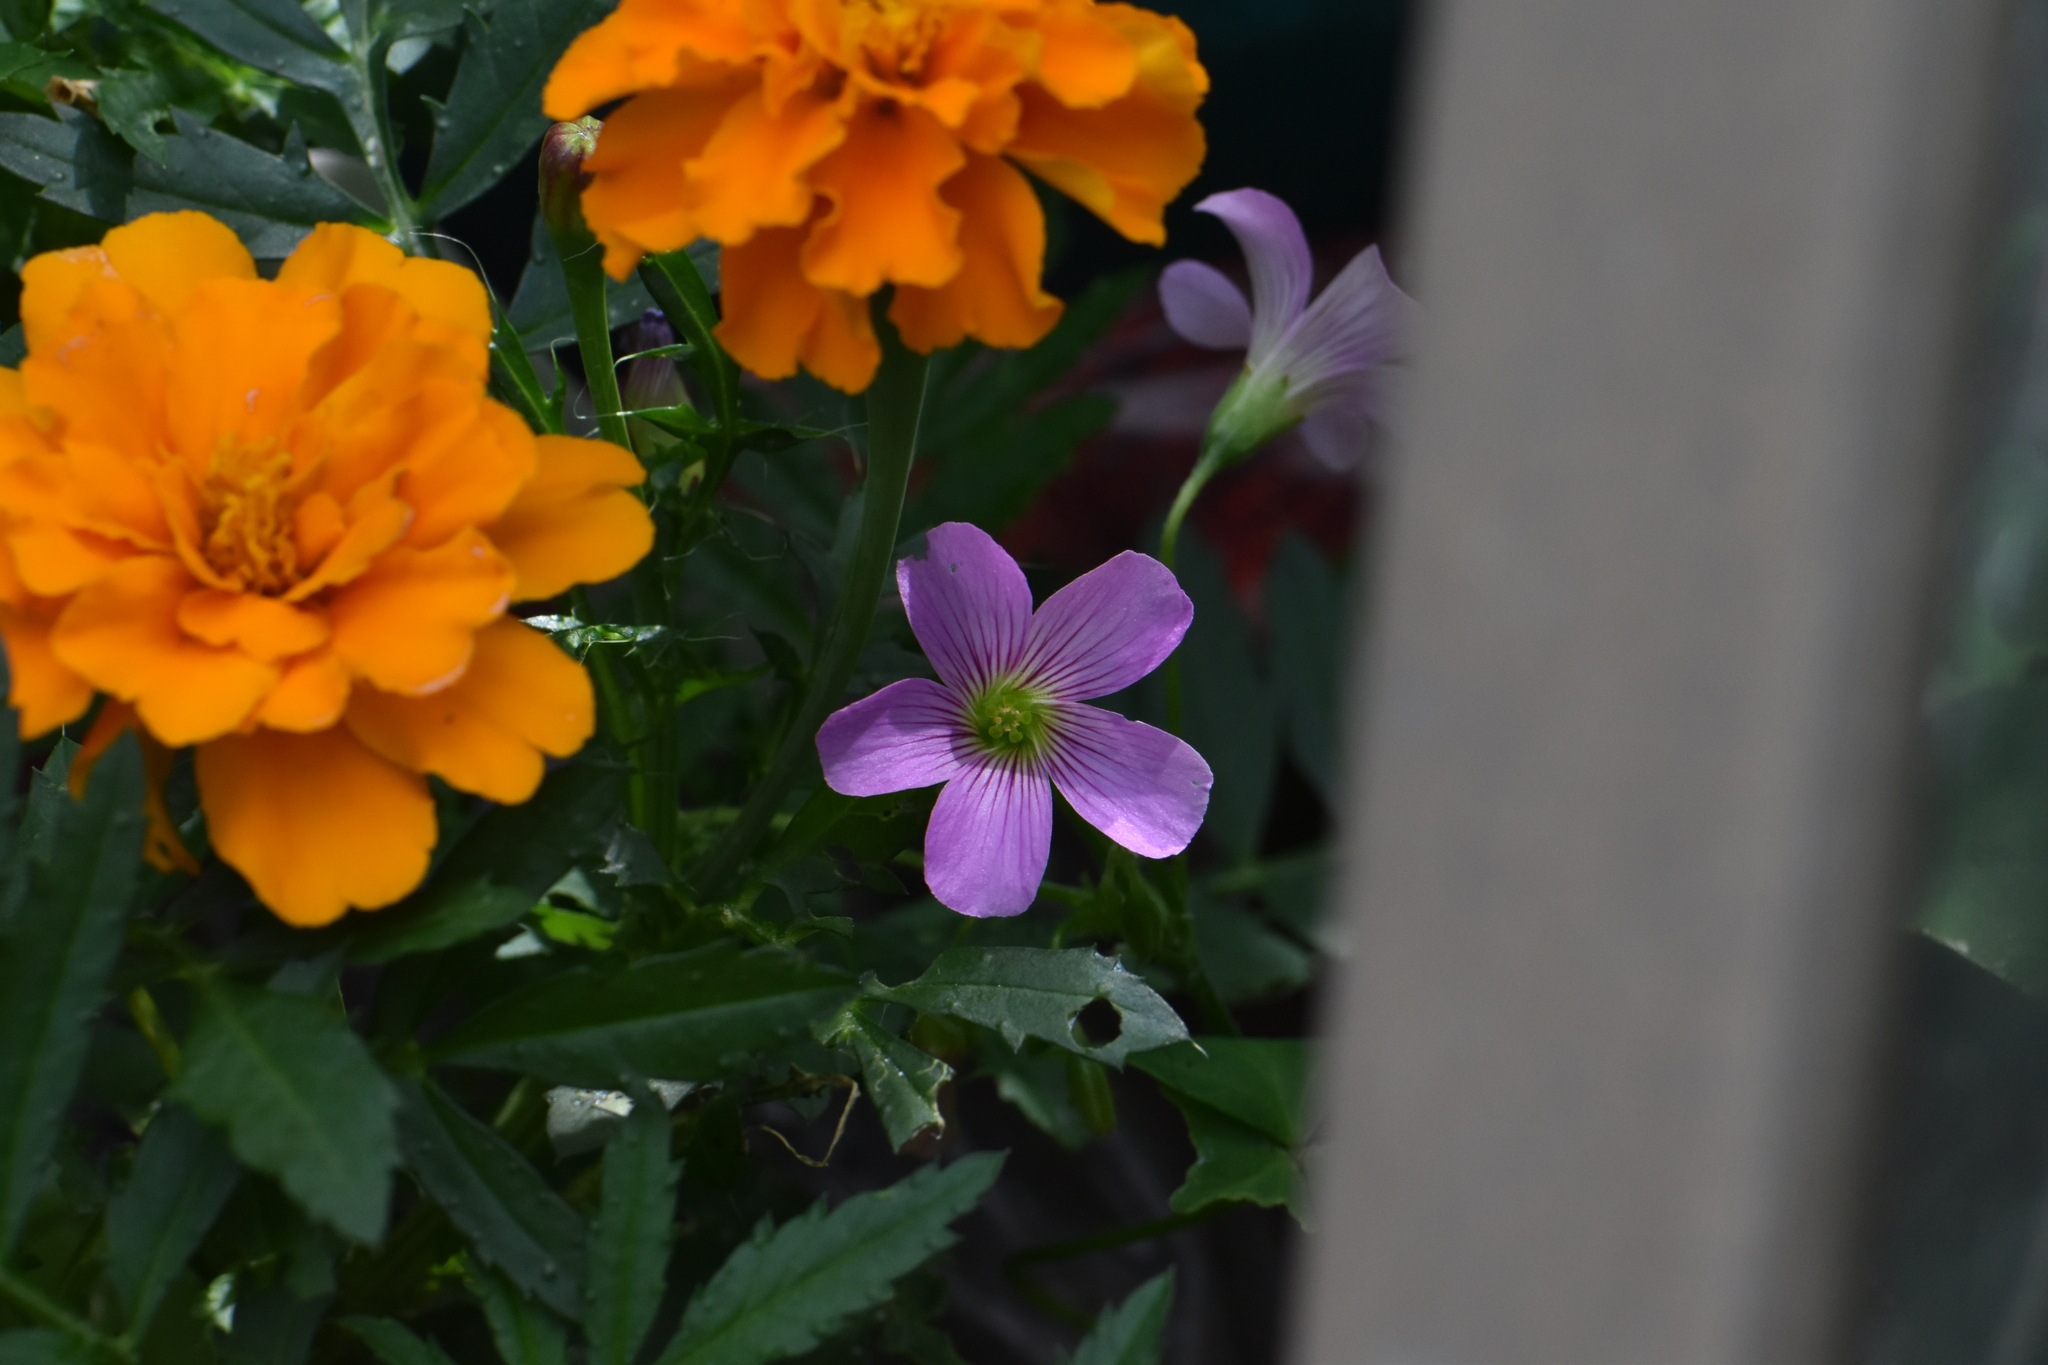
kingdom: Plantae
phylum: Tracheophyta
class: Magnoliopsida
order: Oxalidales
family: Oxalidaceae
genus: Oxalis
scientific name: Oxalis debilis
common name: Large-flowered pink-sorrel
